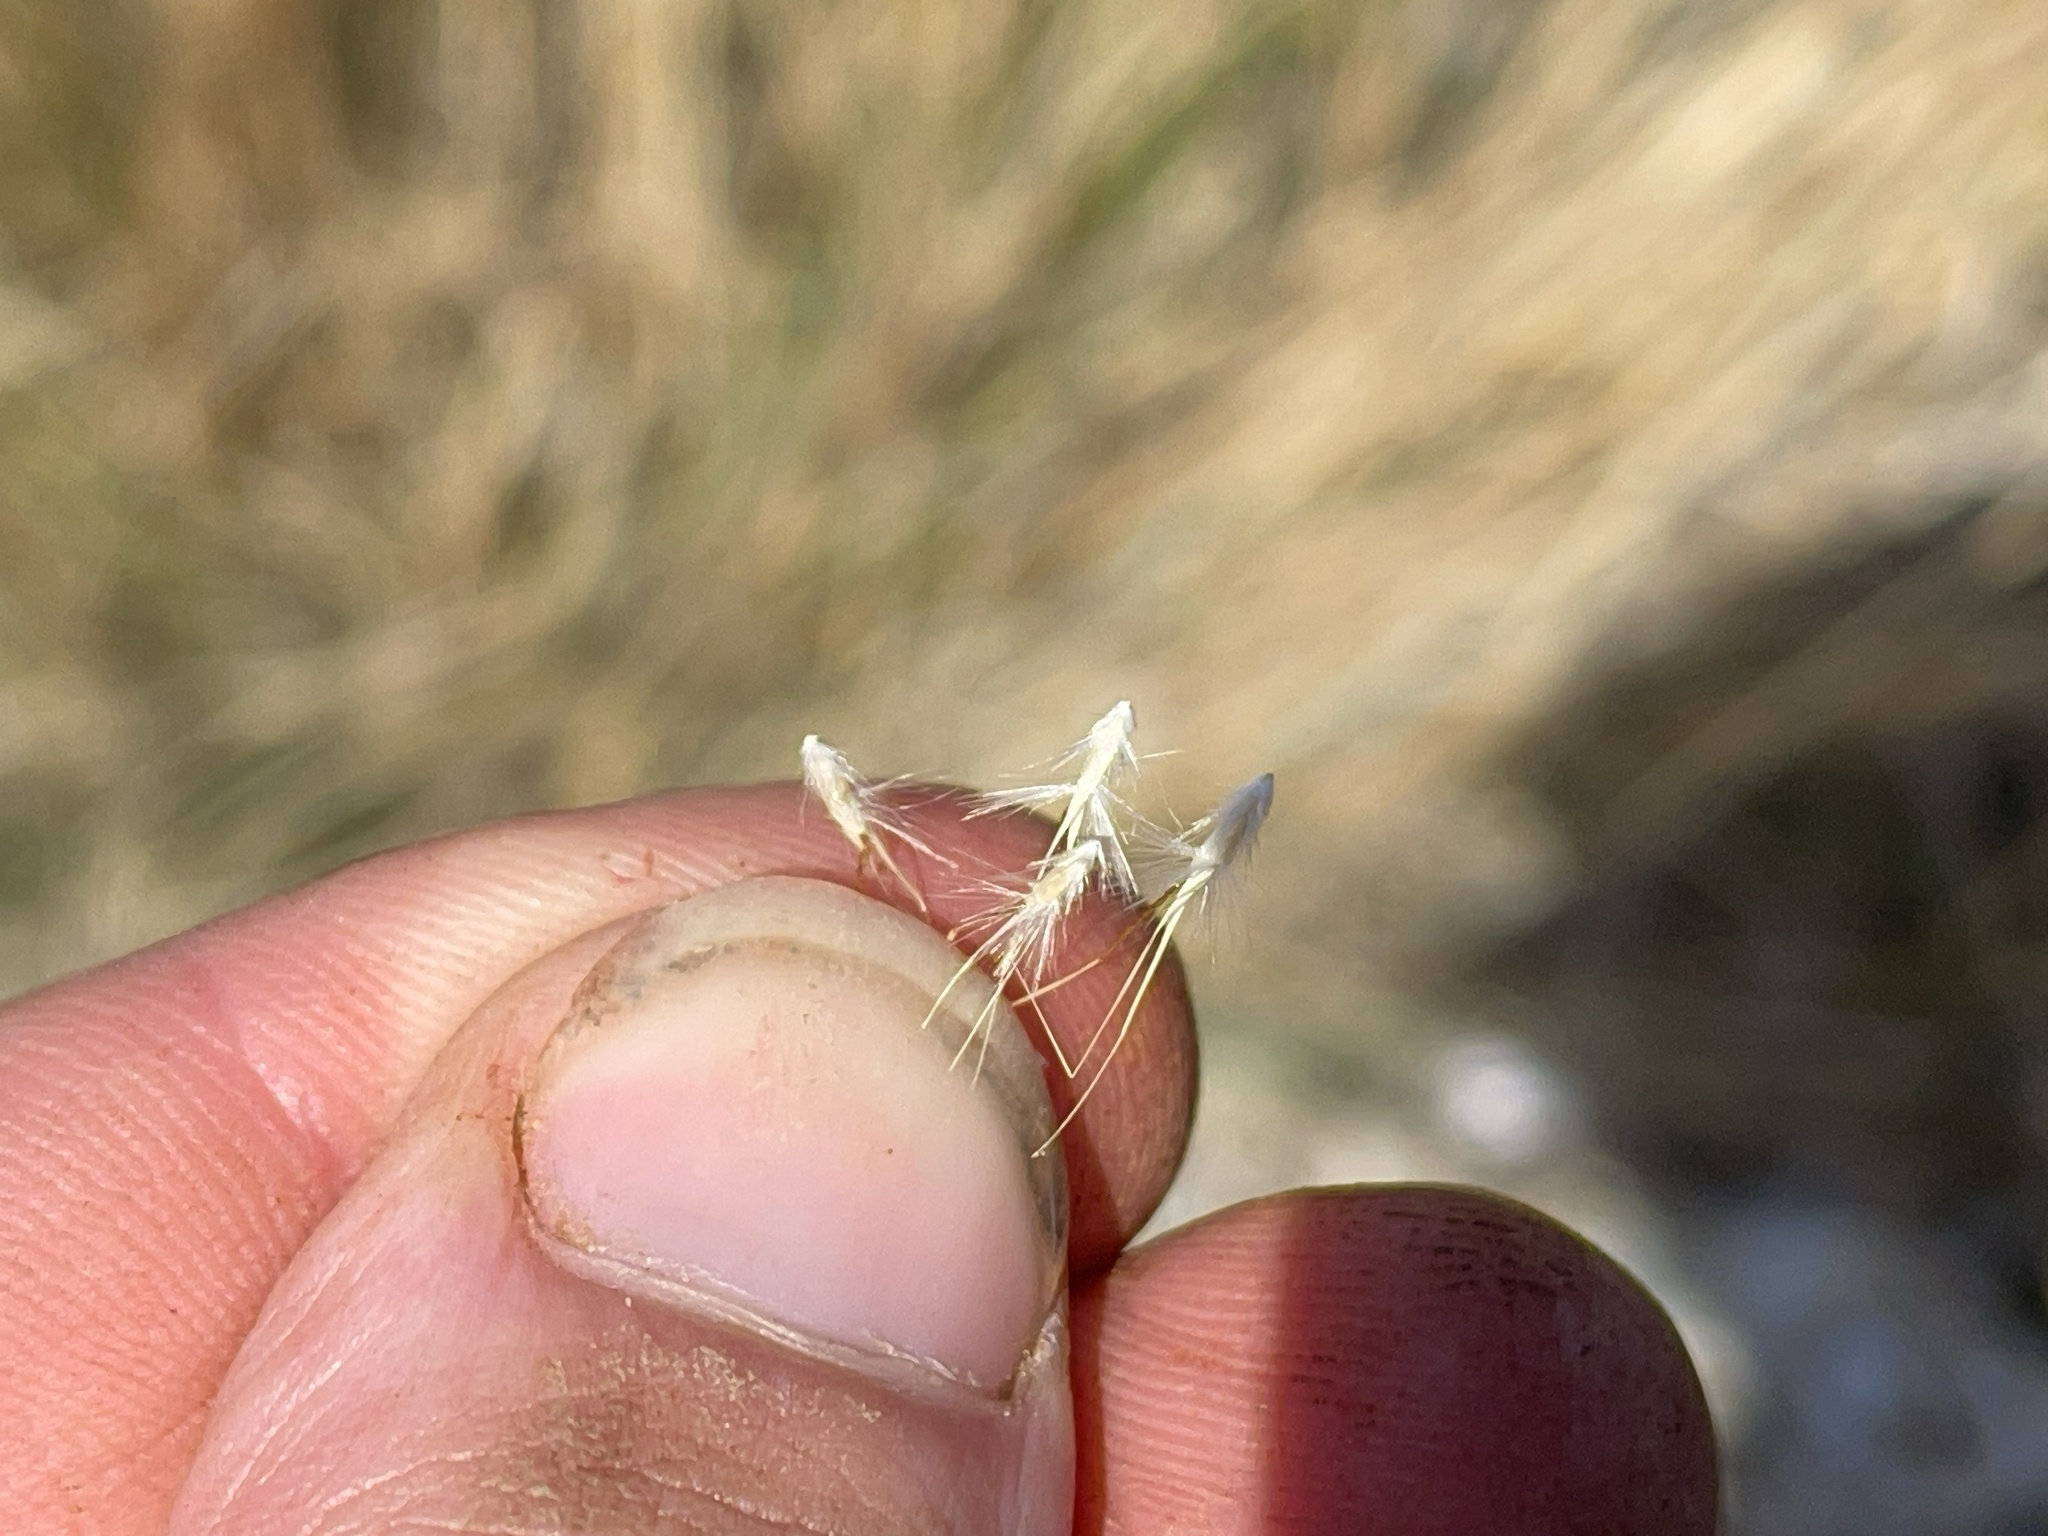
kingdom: Plantae
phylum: Tracheophyta
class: Liliopsida
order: Poales
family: Poaceae
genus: Rytidosperma
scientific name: Rytidosperma setaceum
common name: Small-flower wallaby grass
